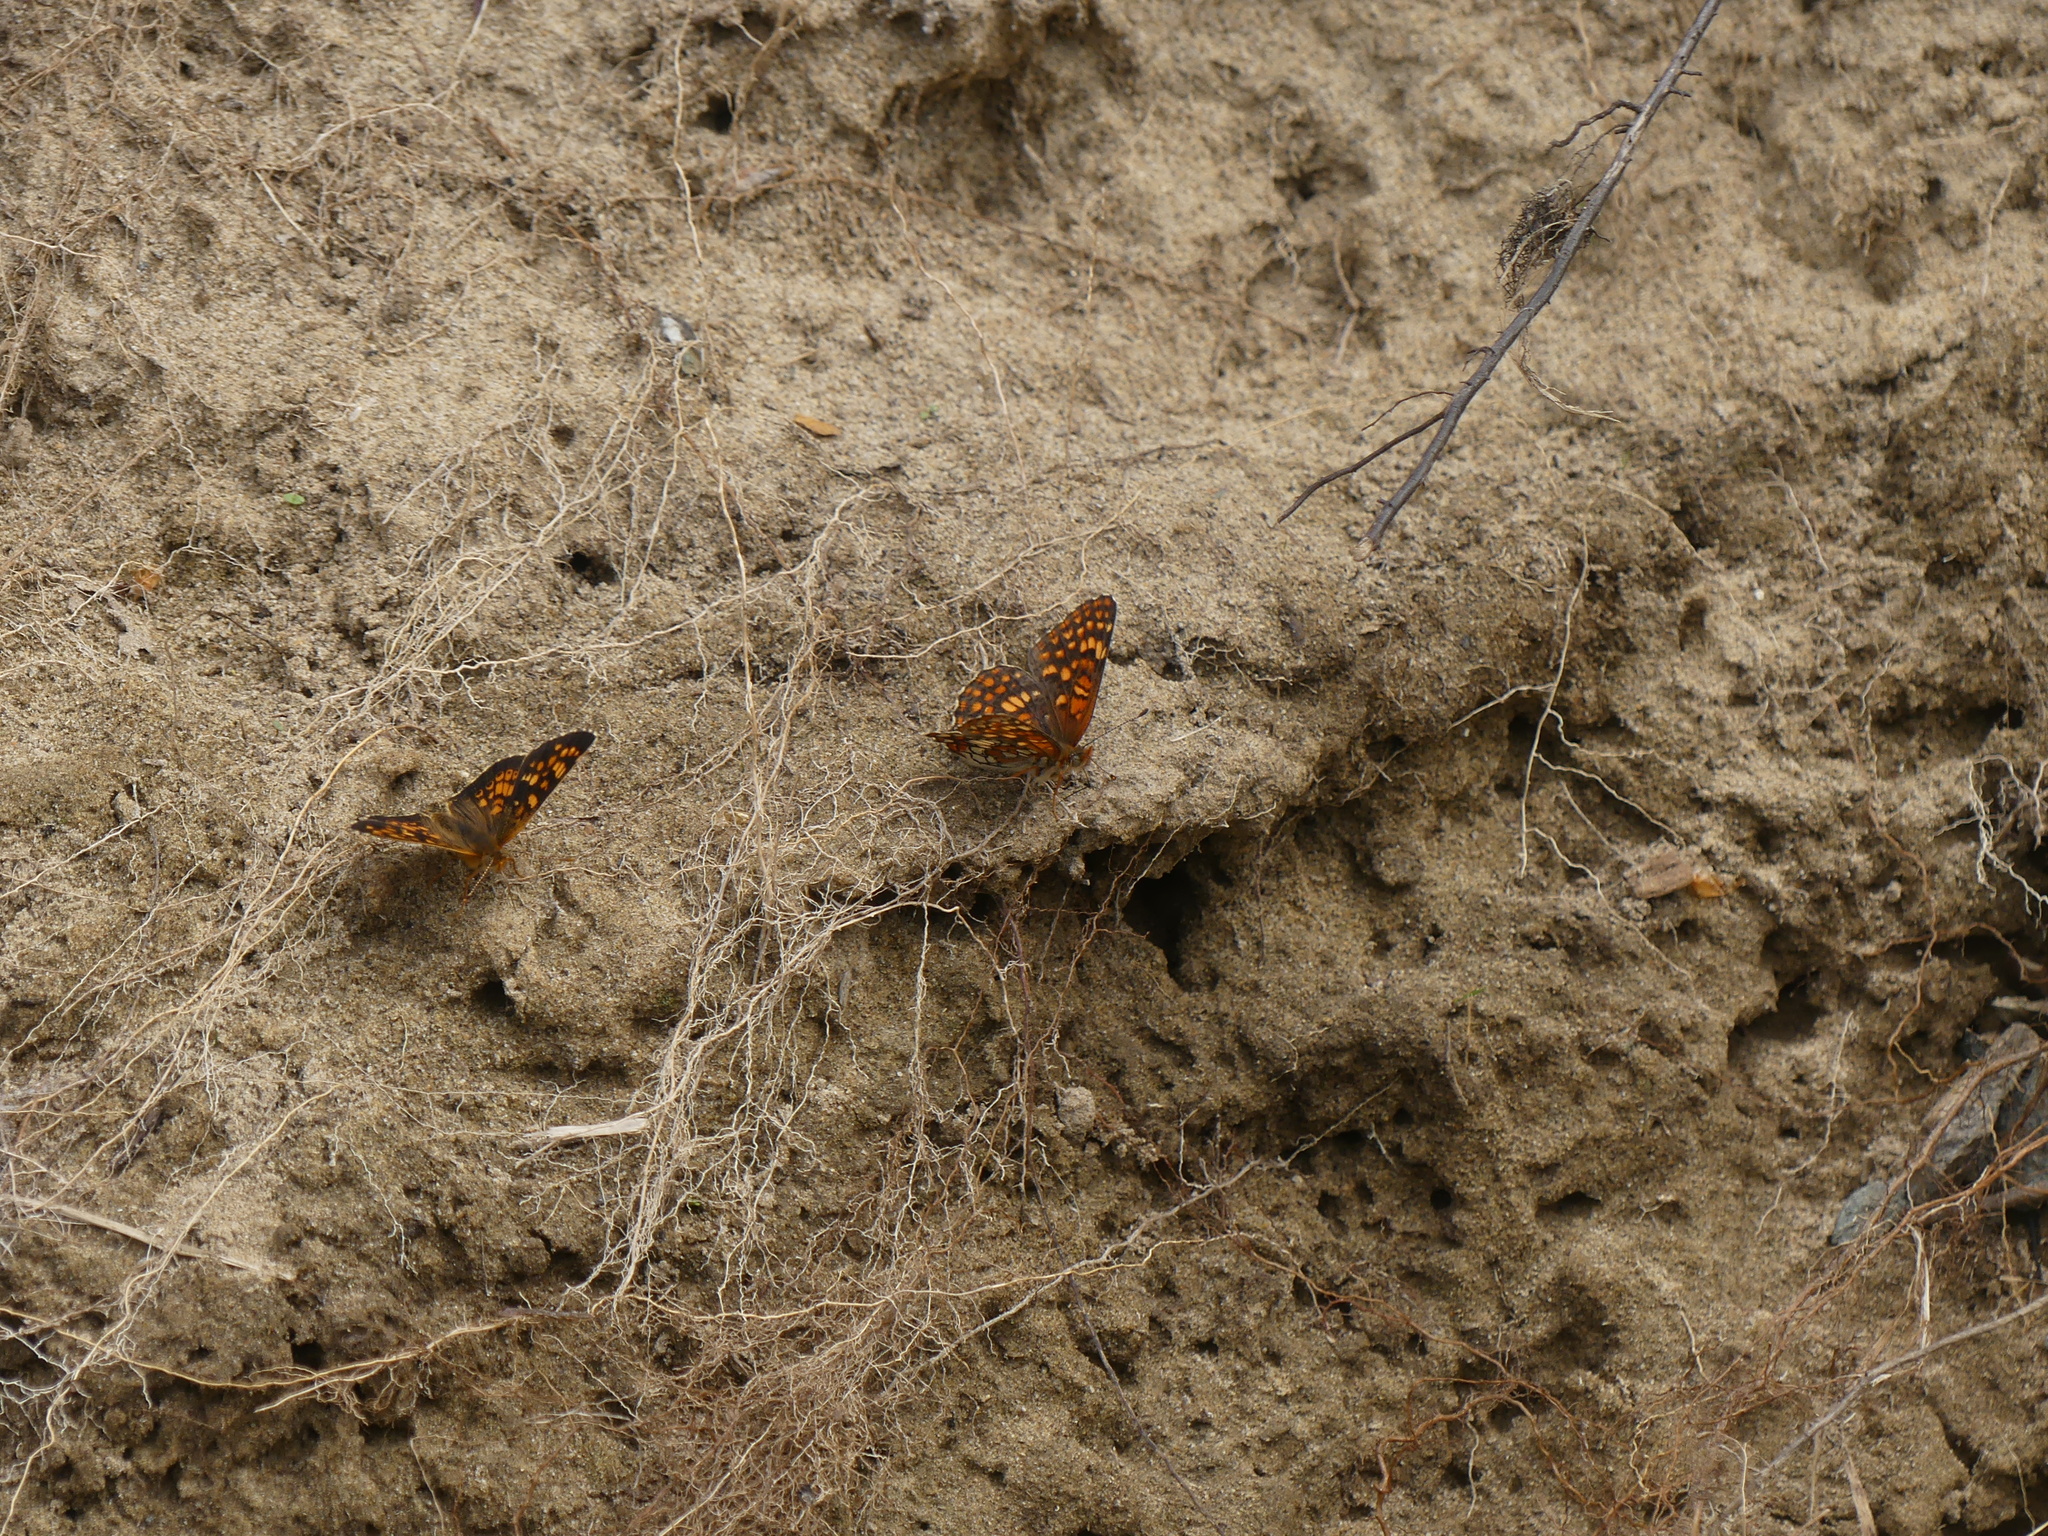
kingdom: Animalia
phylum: Arthropoda
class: Insecta
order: Lepidoptera
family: Nymphalidae
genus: Chlosyne
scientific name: Chlosyne palla
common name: Northern checkerspot
